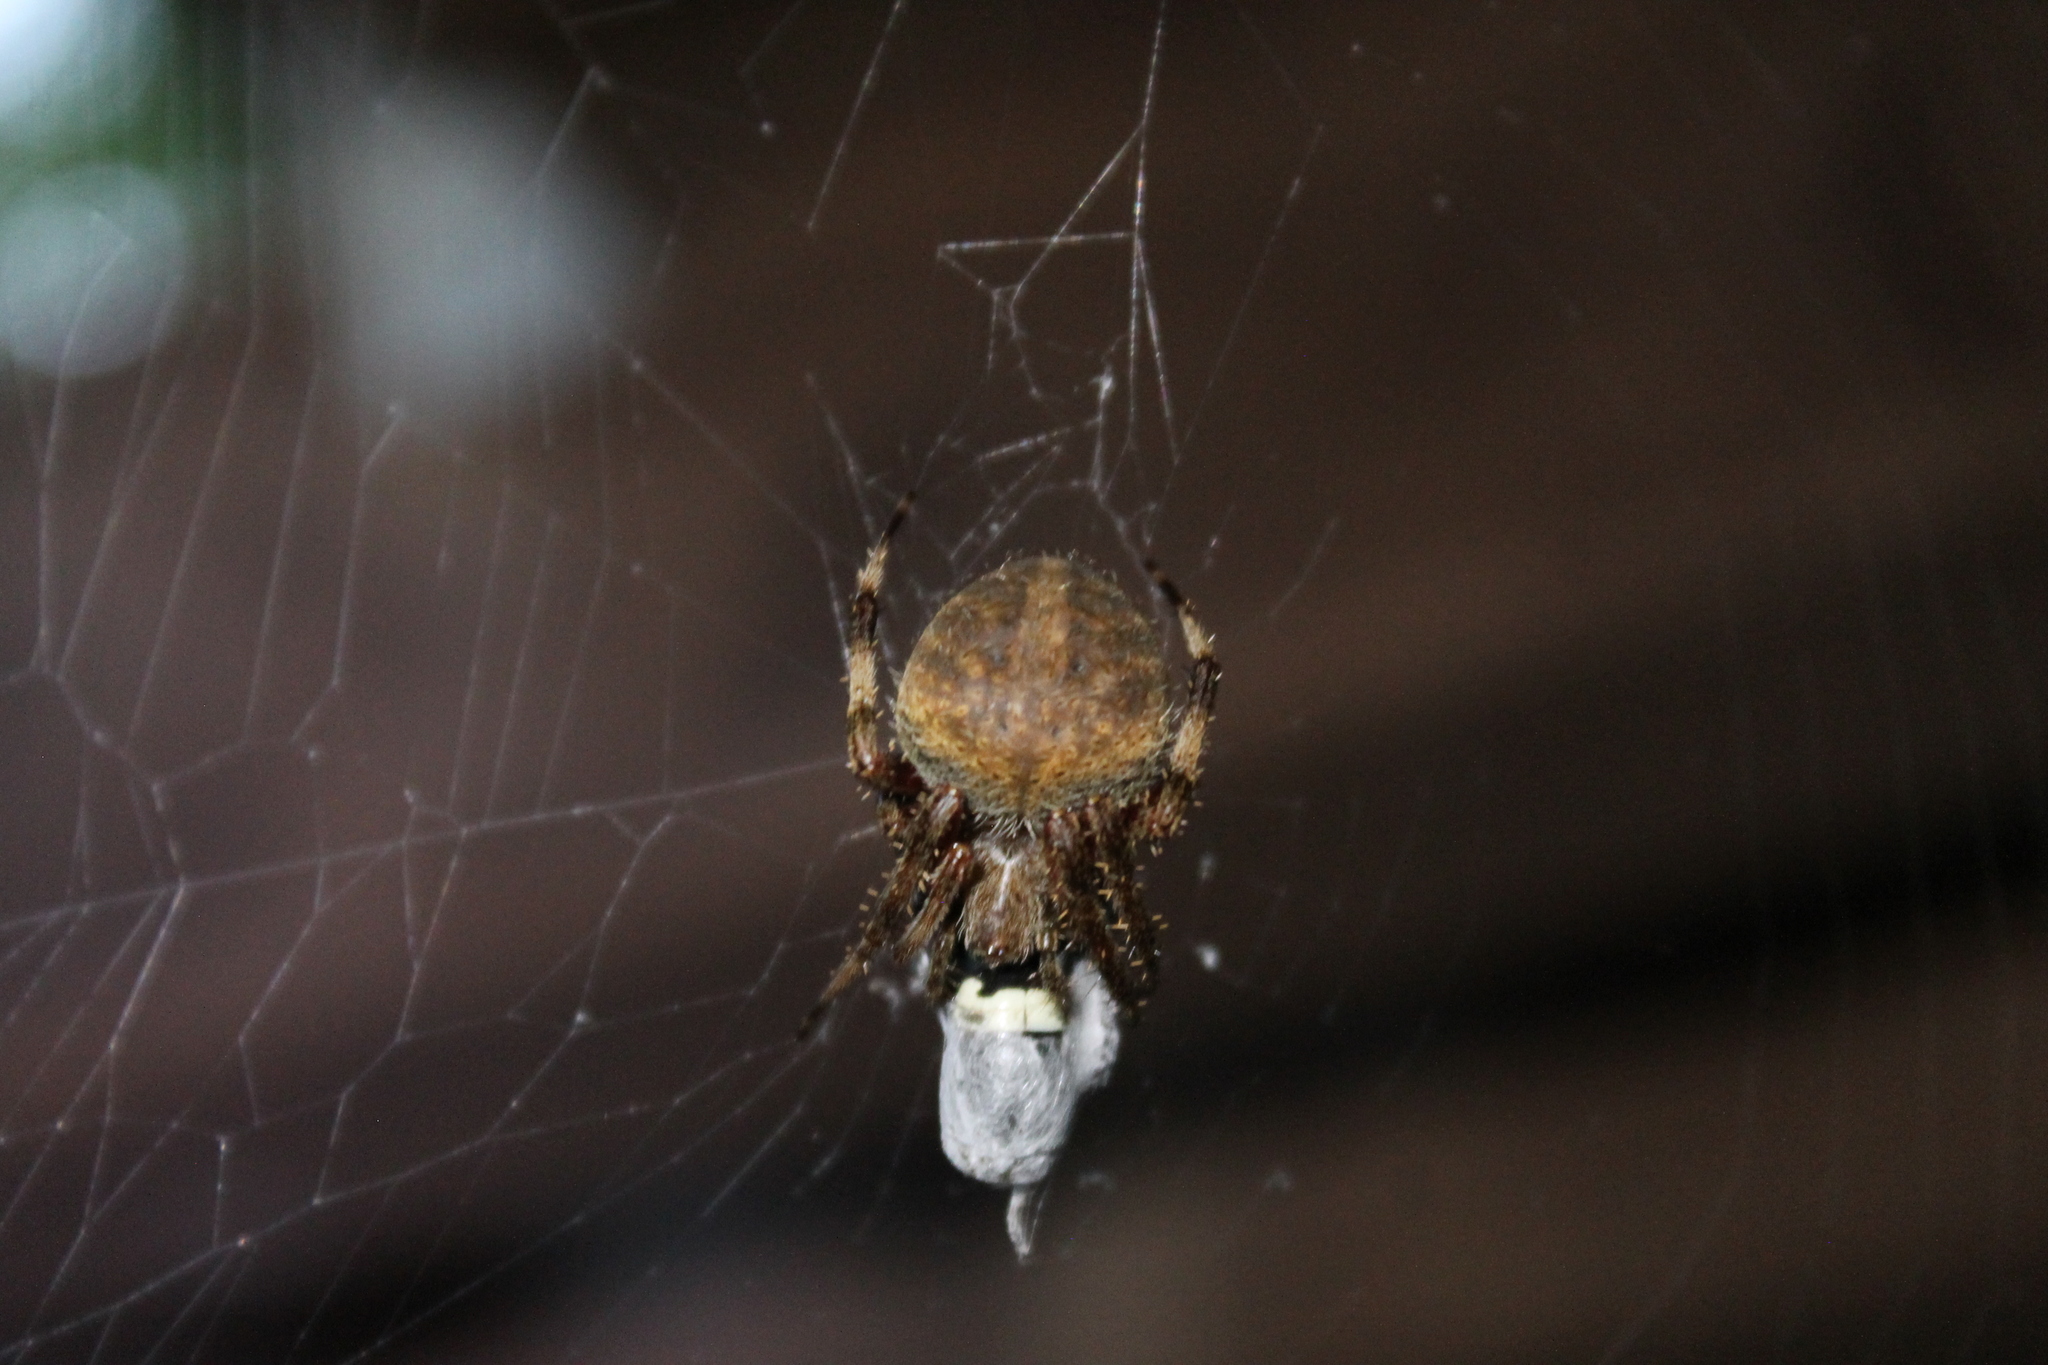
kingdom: Animalia
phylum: Arthropoda
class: Arachnida
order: Araneae
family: Araneidae
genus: Neoscona
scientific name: Neoscona crucifera
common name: Spotted orbweaver
